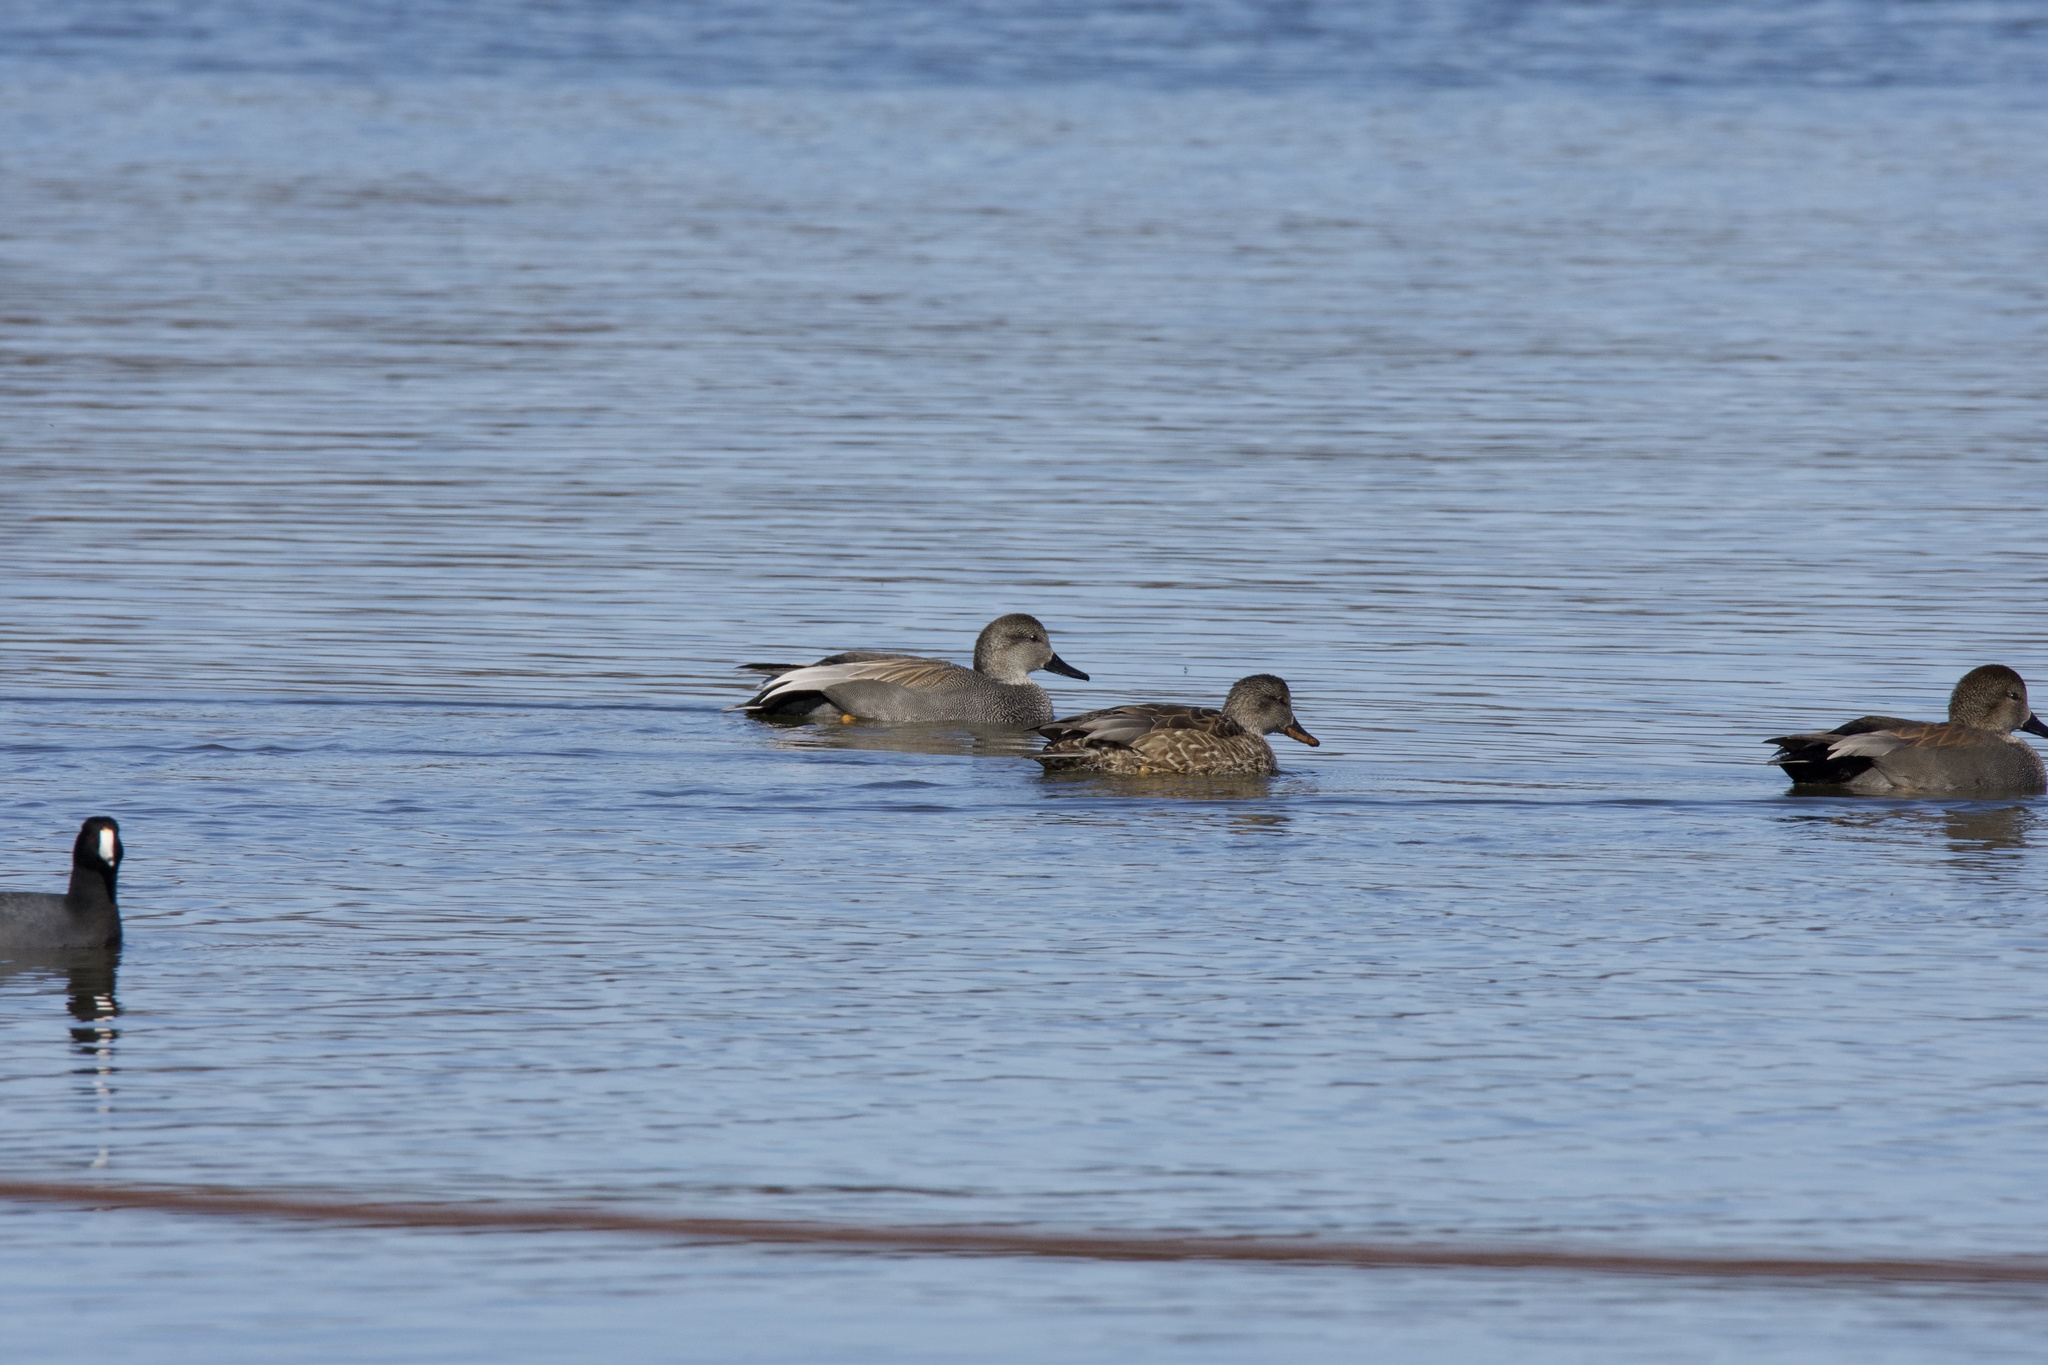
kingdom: Animalia
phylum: Chordata
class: Aves
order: Anseriformes
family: Anatidae
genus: Mareca
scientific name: Mareca strepera
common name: Gadwall
